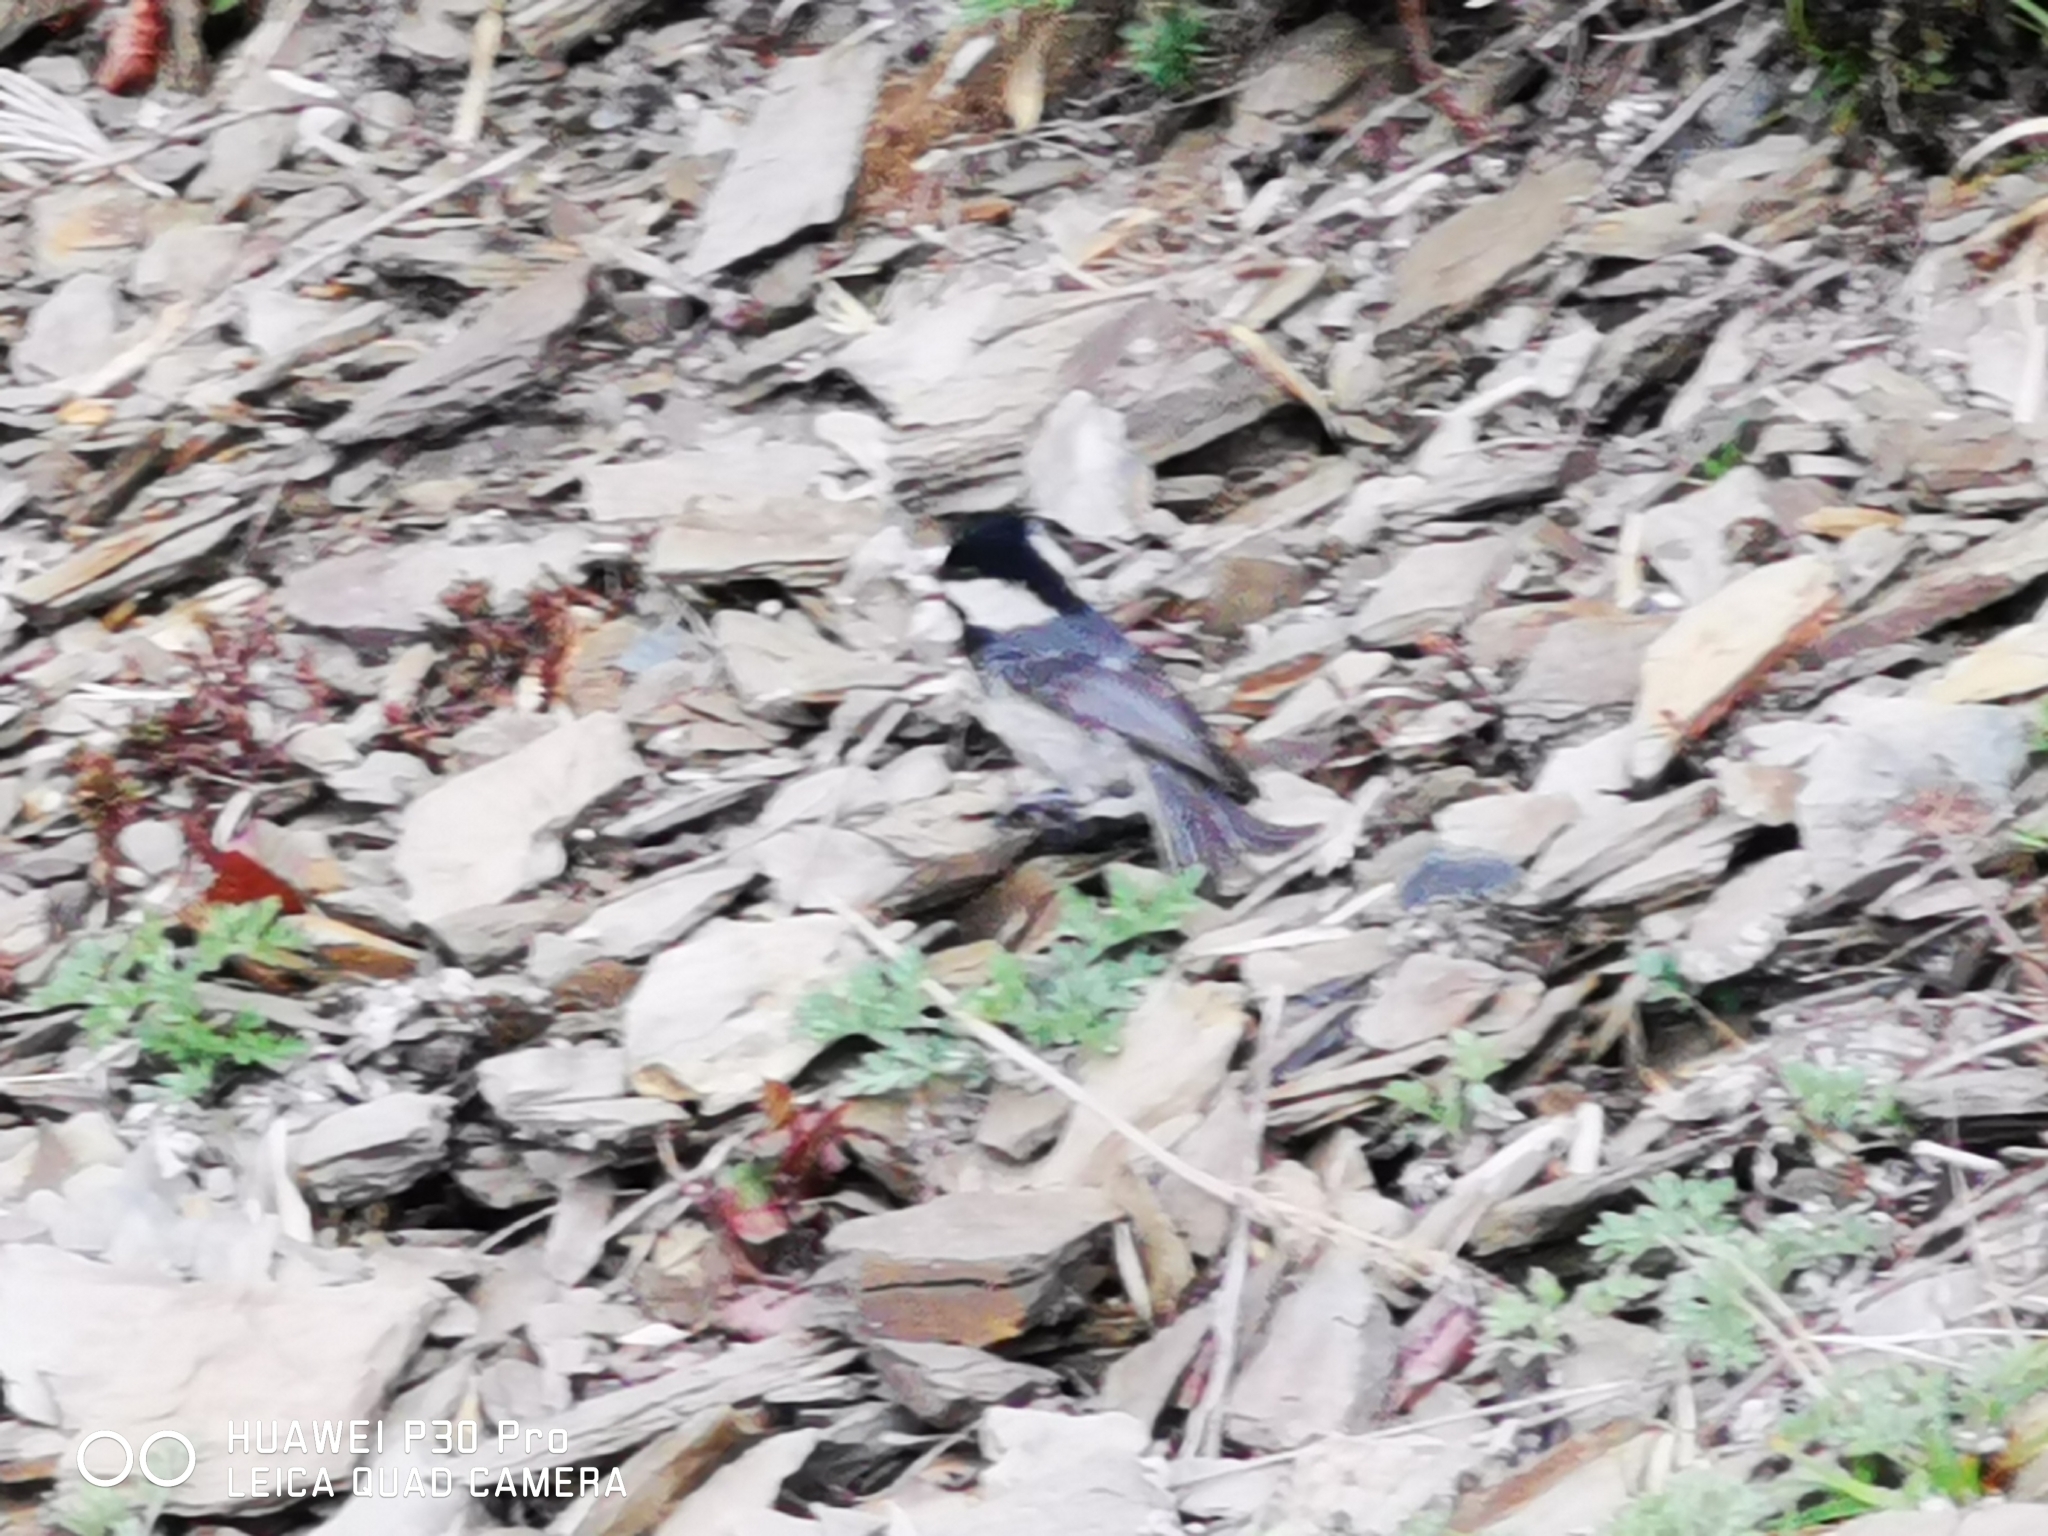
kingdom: Animalia
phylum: Chordata
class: Aves
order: Passeriformes
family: Paridae
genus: Periparus
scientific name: Periparus ater
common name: Coal tit
